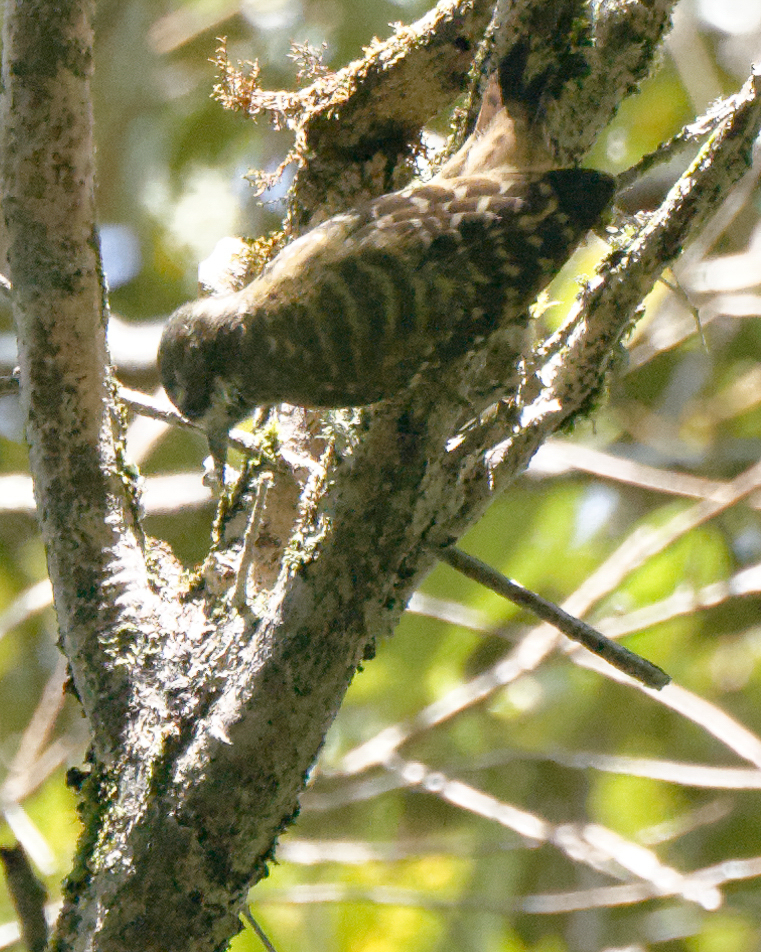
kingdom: Animalia
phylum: Chordata
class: Aves
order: Piciformes
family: Picidae
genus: Yungipicus
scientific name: Yungipicus temminckii
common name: Sulawesi pygmy woodpecker
